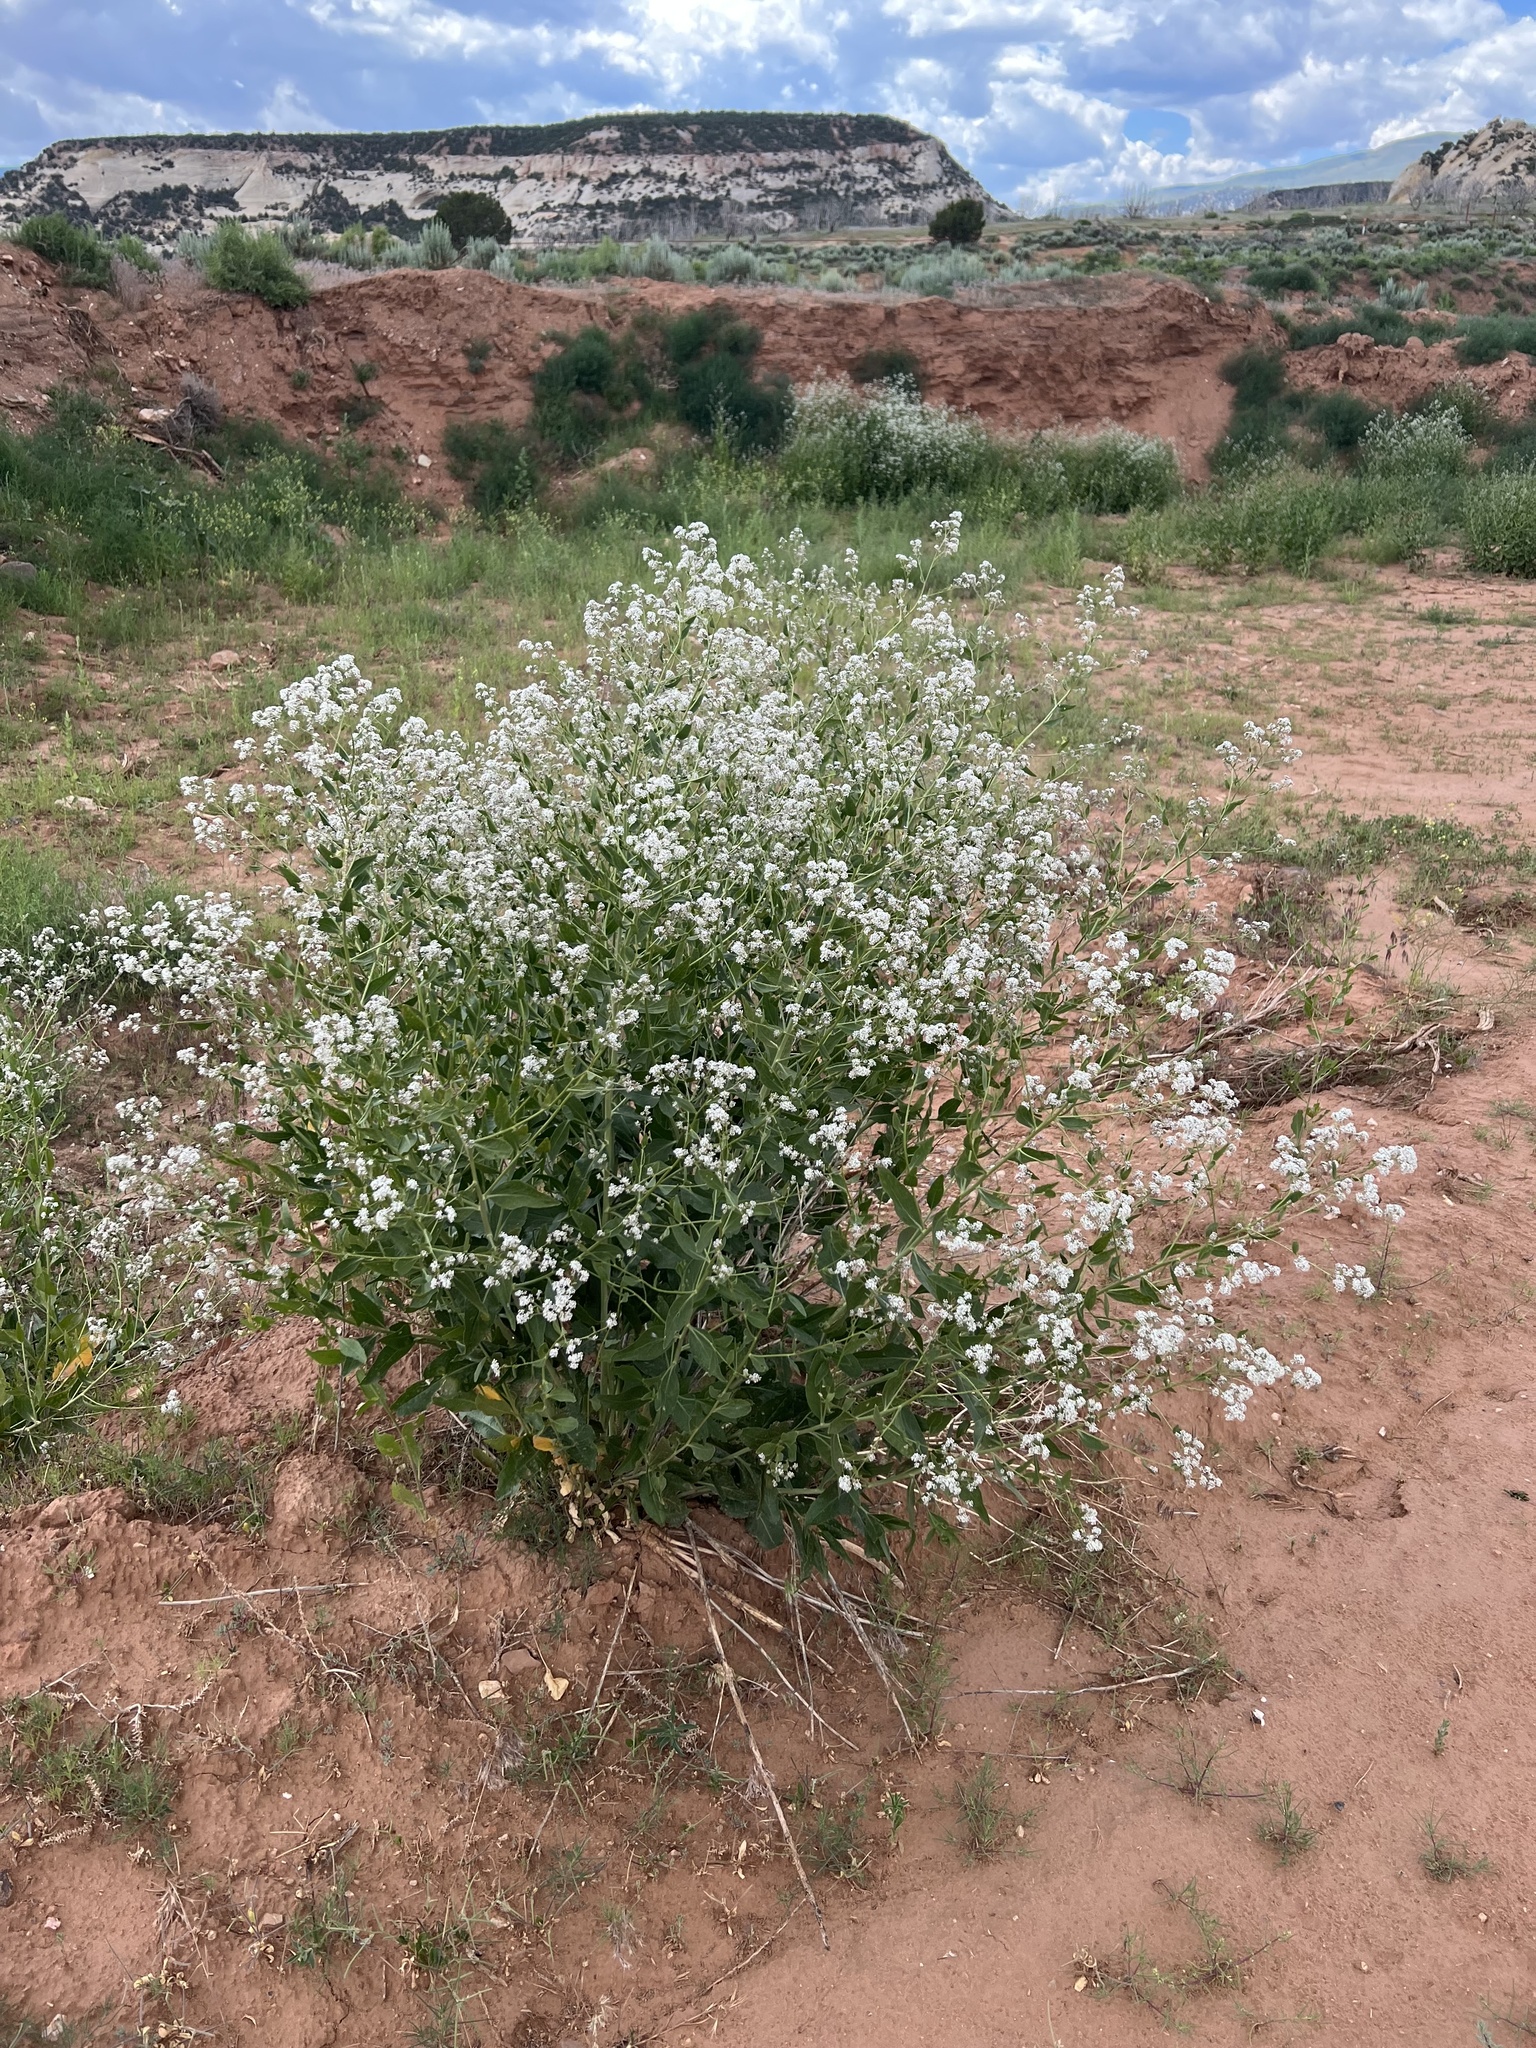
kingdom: Plantae
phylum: Tracheophyta
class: Magnoliopsida
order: Brassicales
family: Brassicaceae
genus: Lepidium
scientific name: Lepidium latifolium
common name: Dittander
